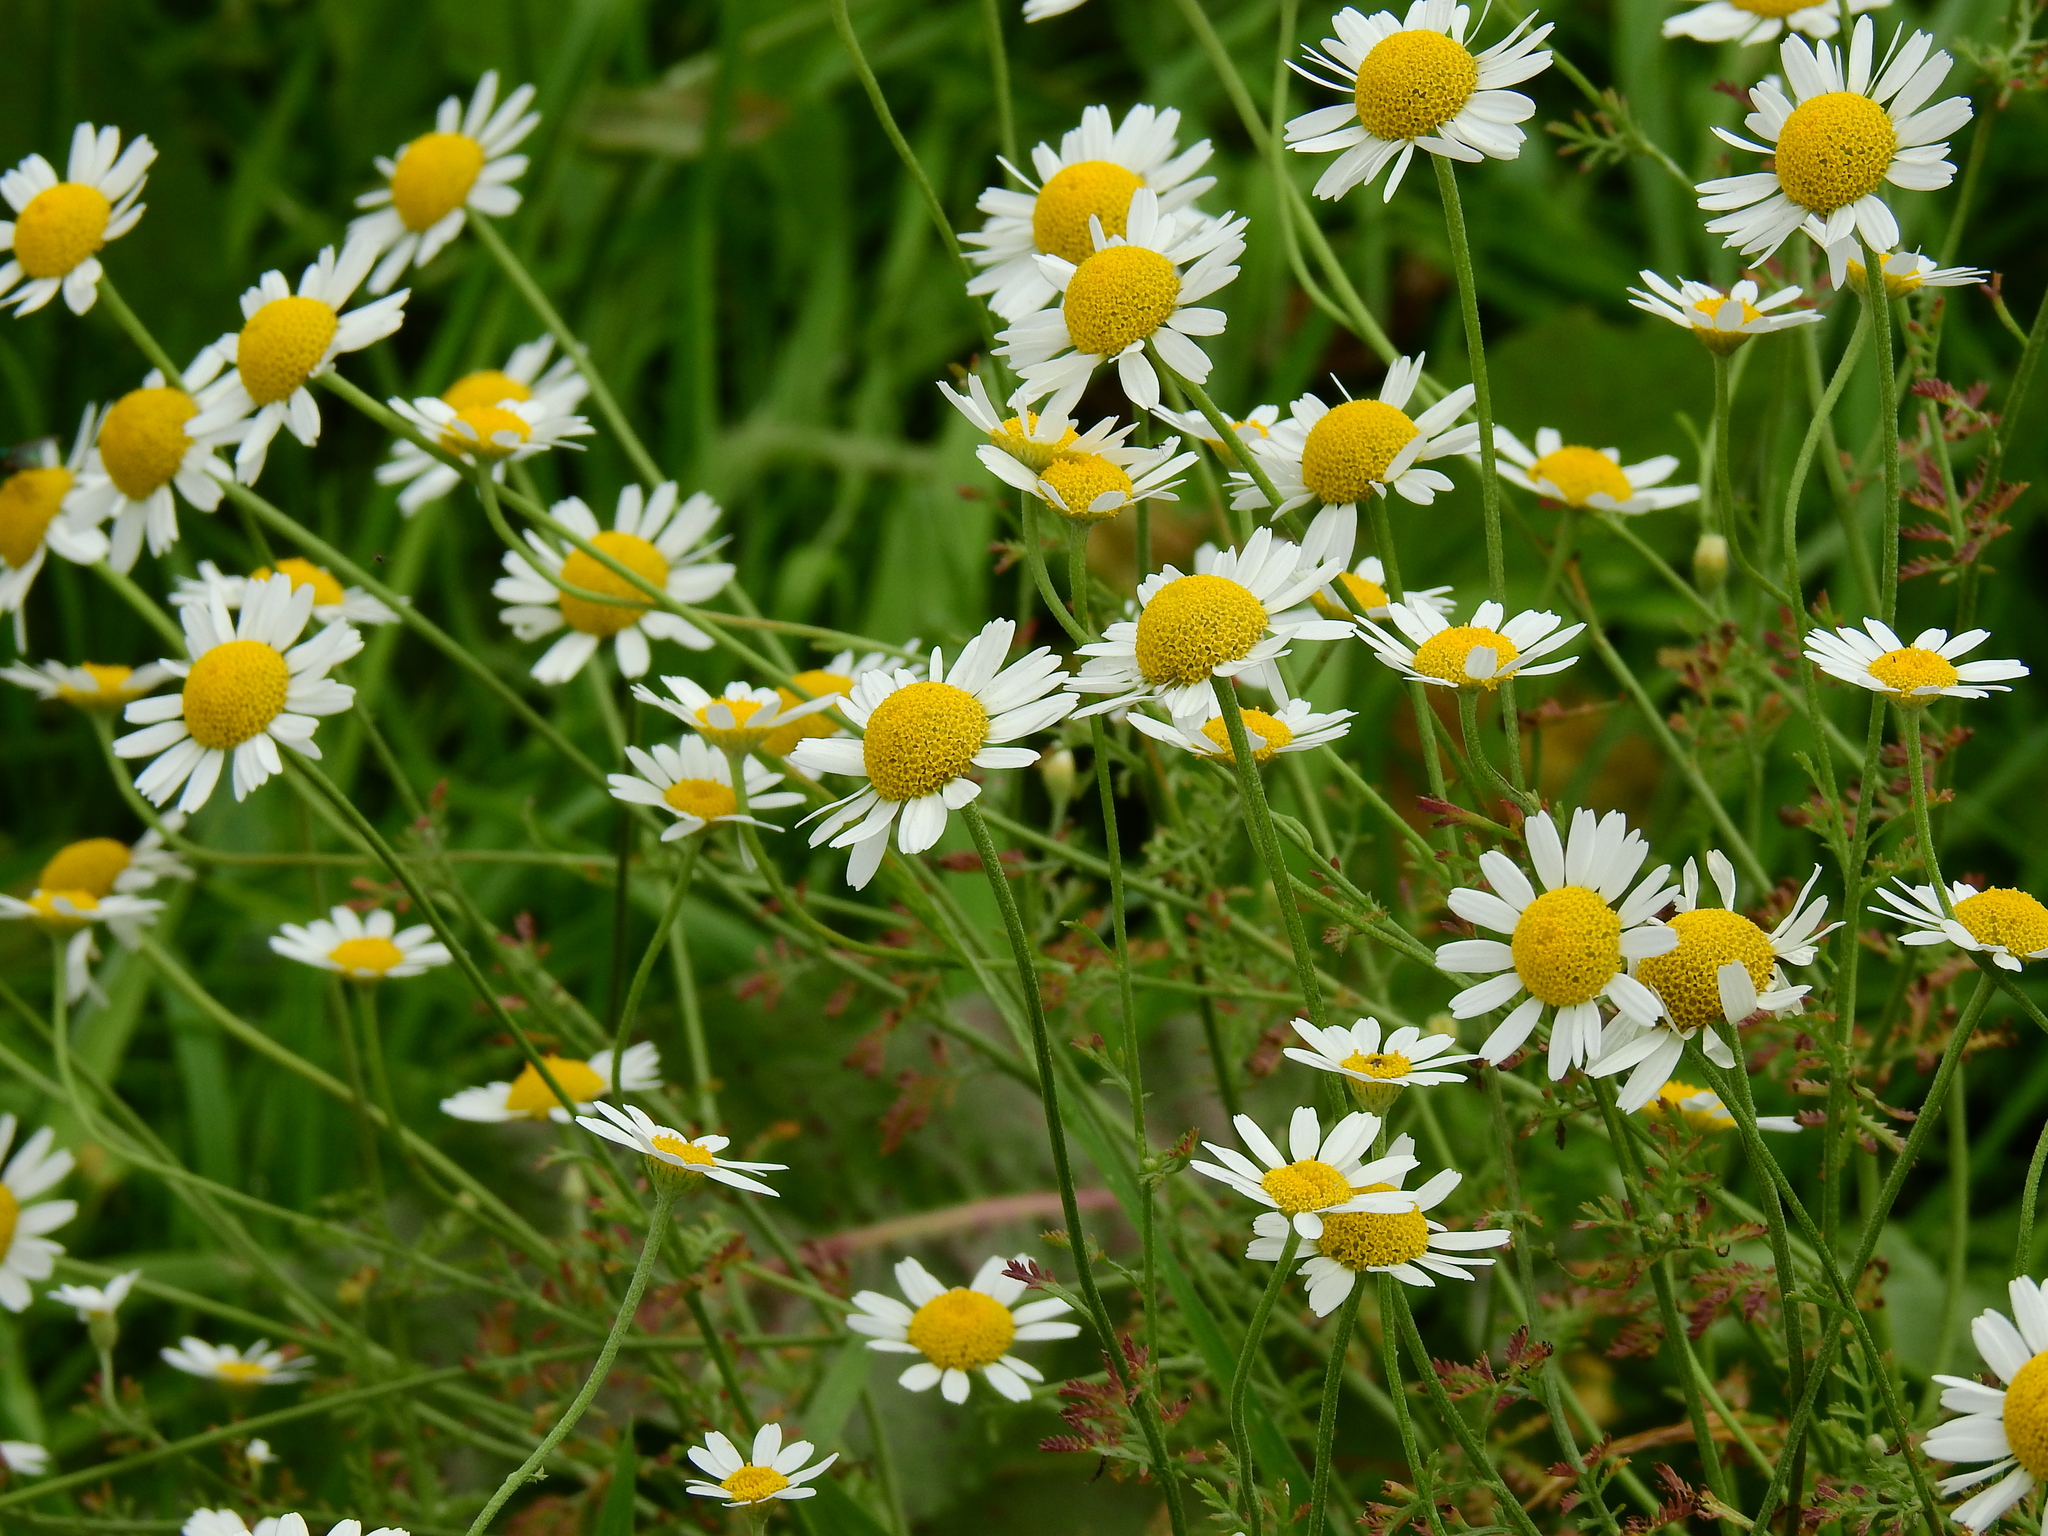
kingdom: Plantae
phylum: Tracheophyta
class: Magnoliopsida
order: Asterales
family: Asteraceae
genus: Cota
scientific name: Cota austriaca
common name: Austrian chamomile
